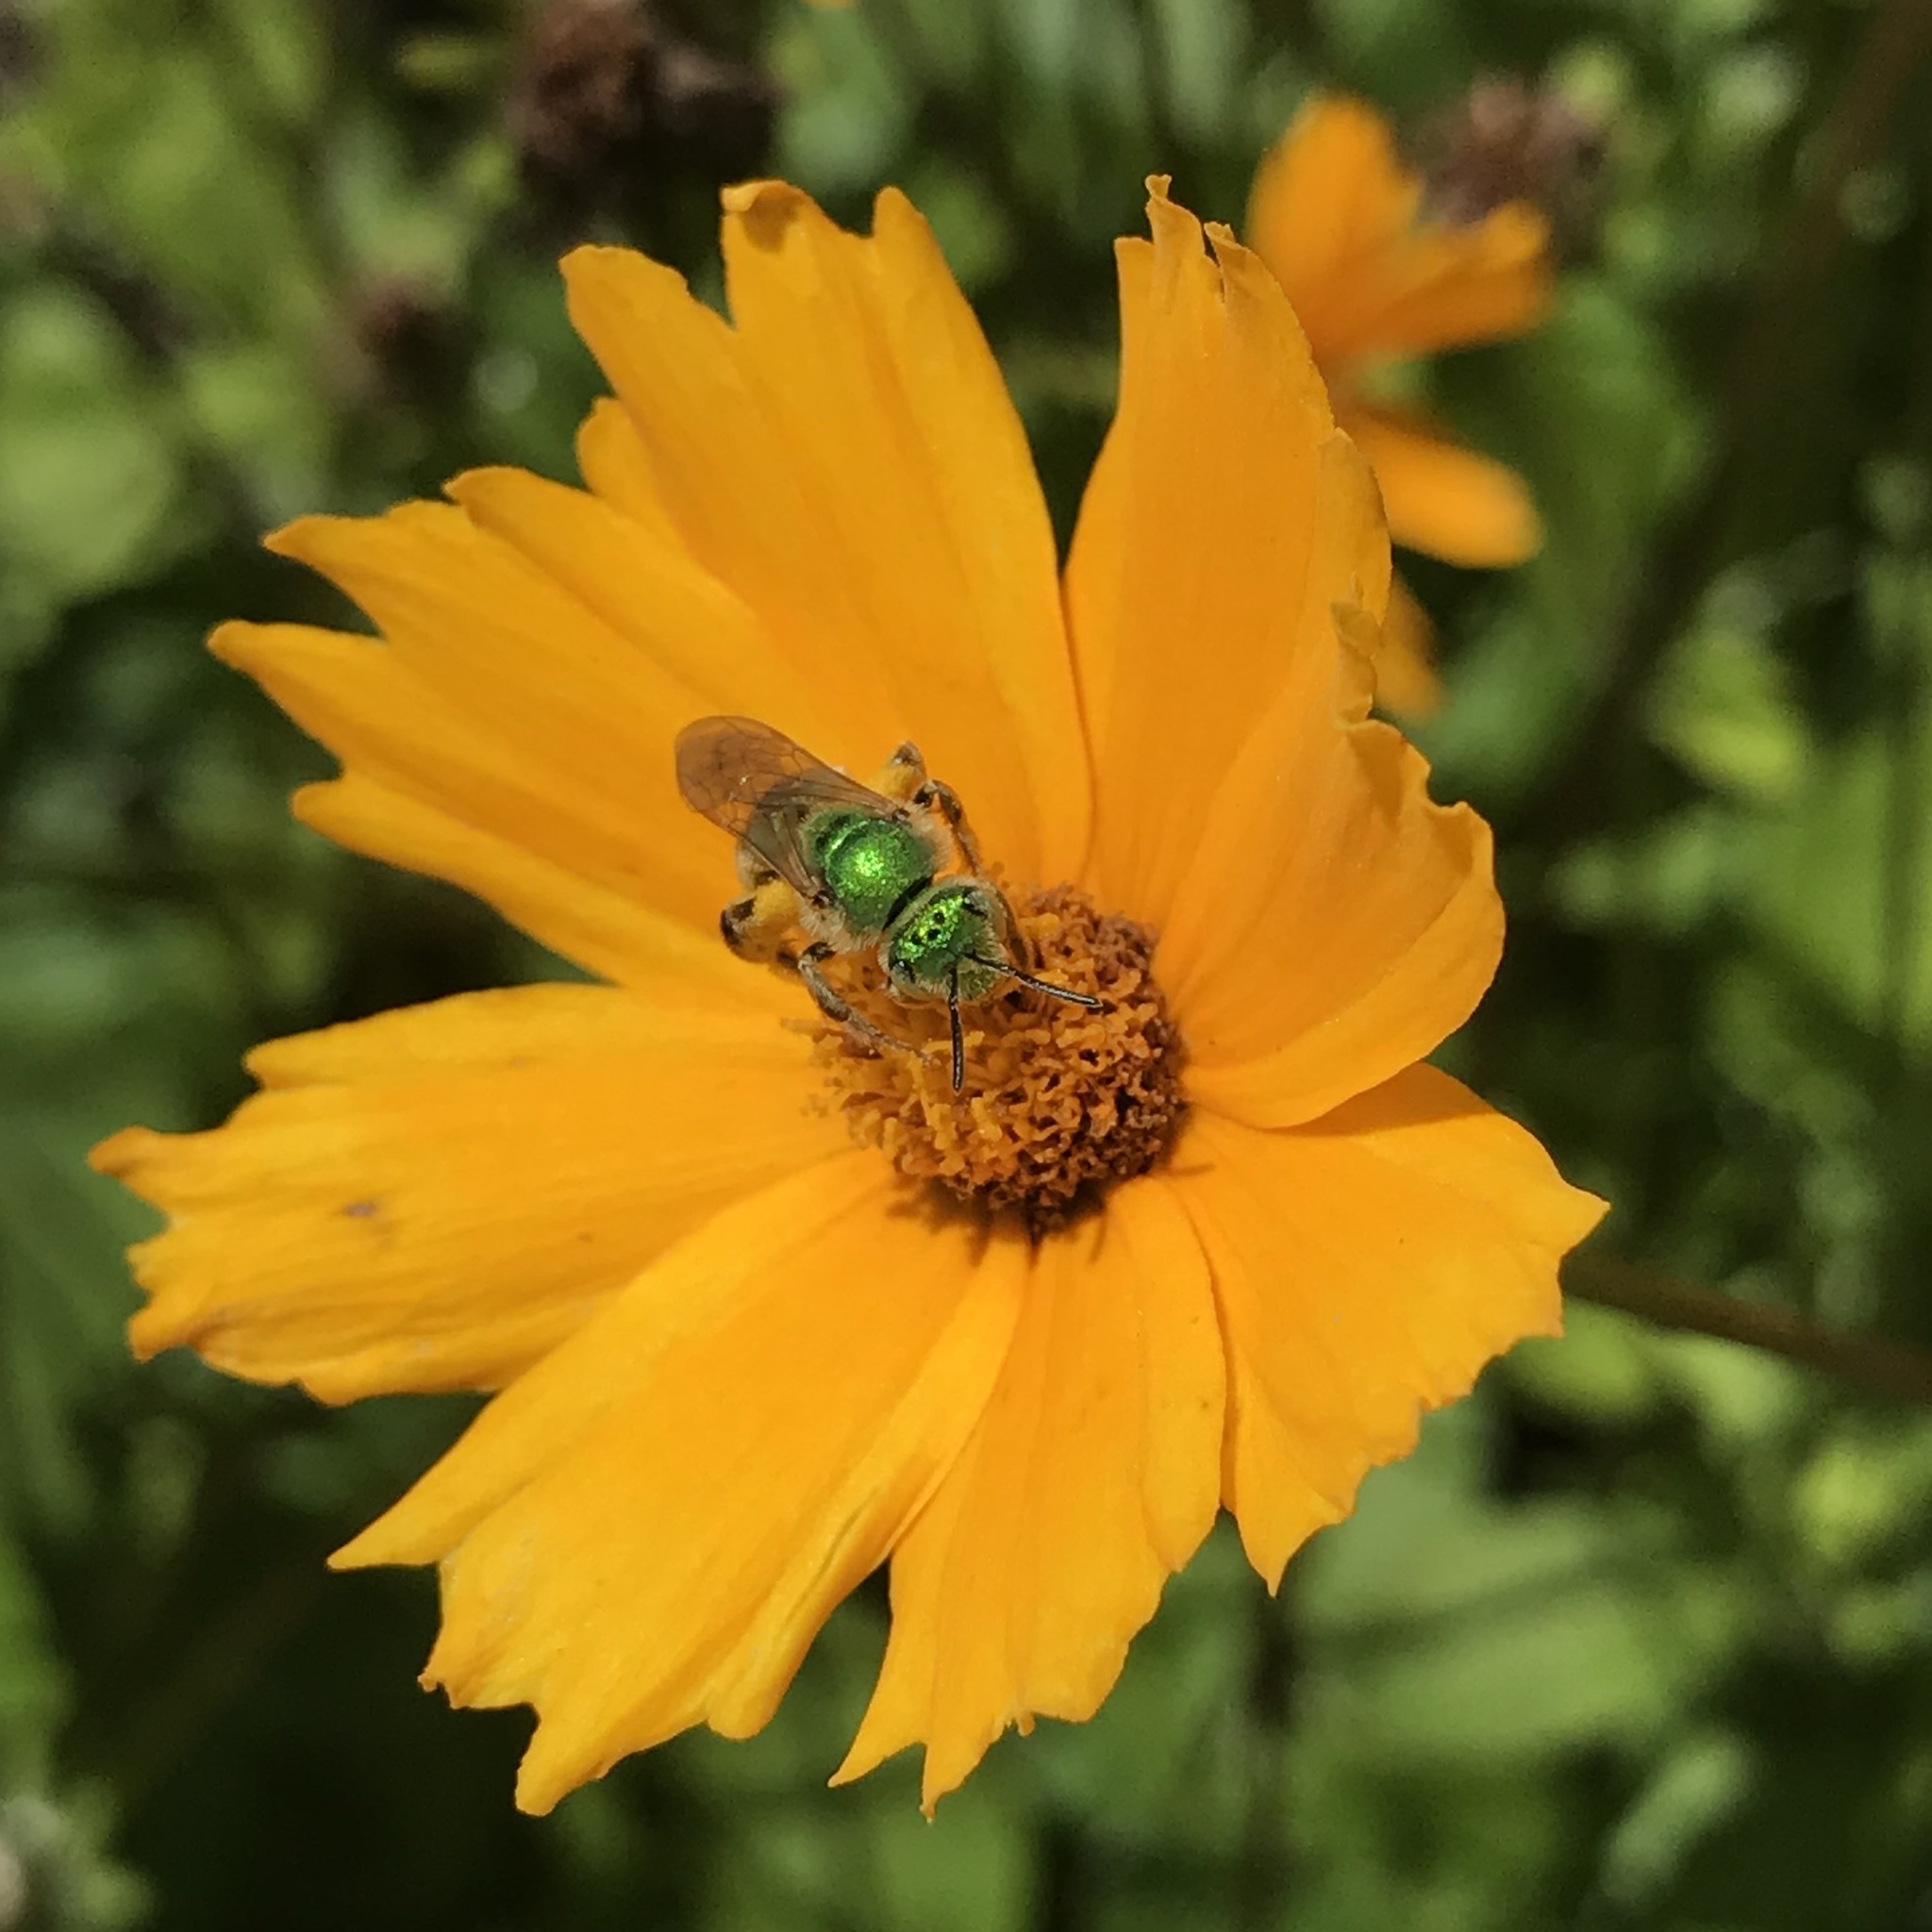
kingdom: Animalia
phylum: Arthropoda
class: Insecta
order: Hymenoptera
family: Halictidae
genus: Agapostemon
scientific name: Agapostemon texanus
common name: Texas striped sweat bee
